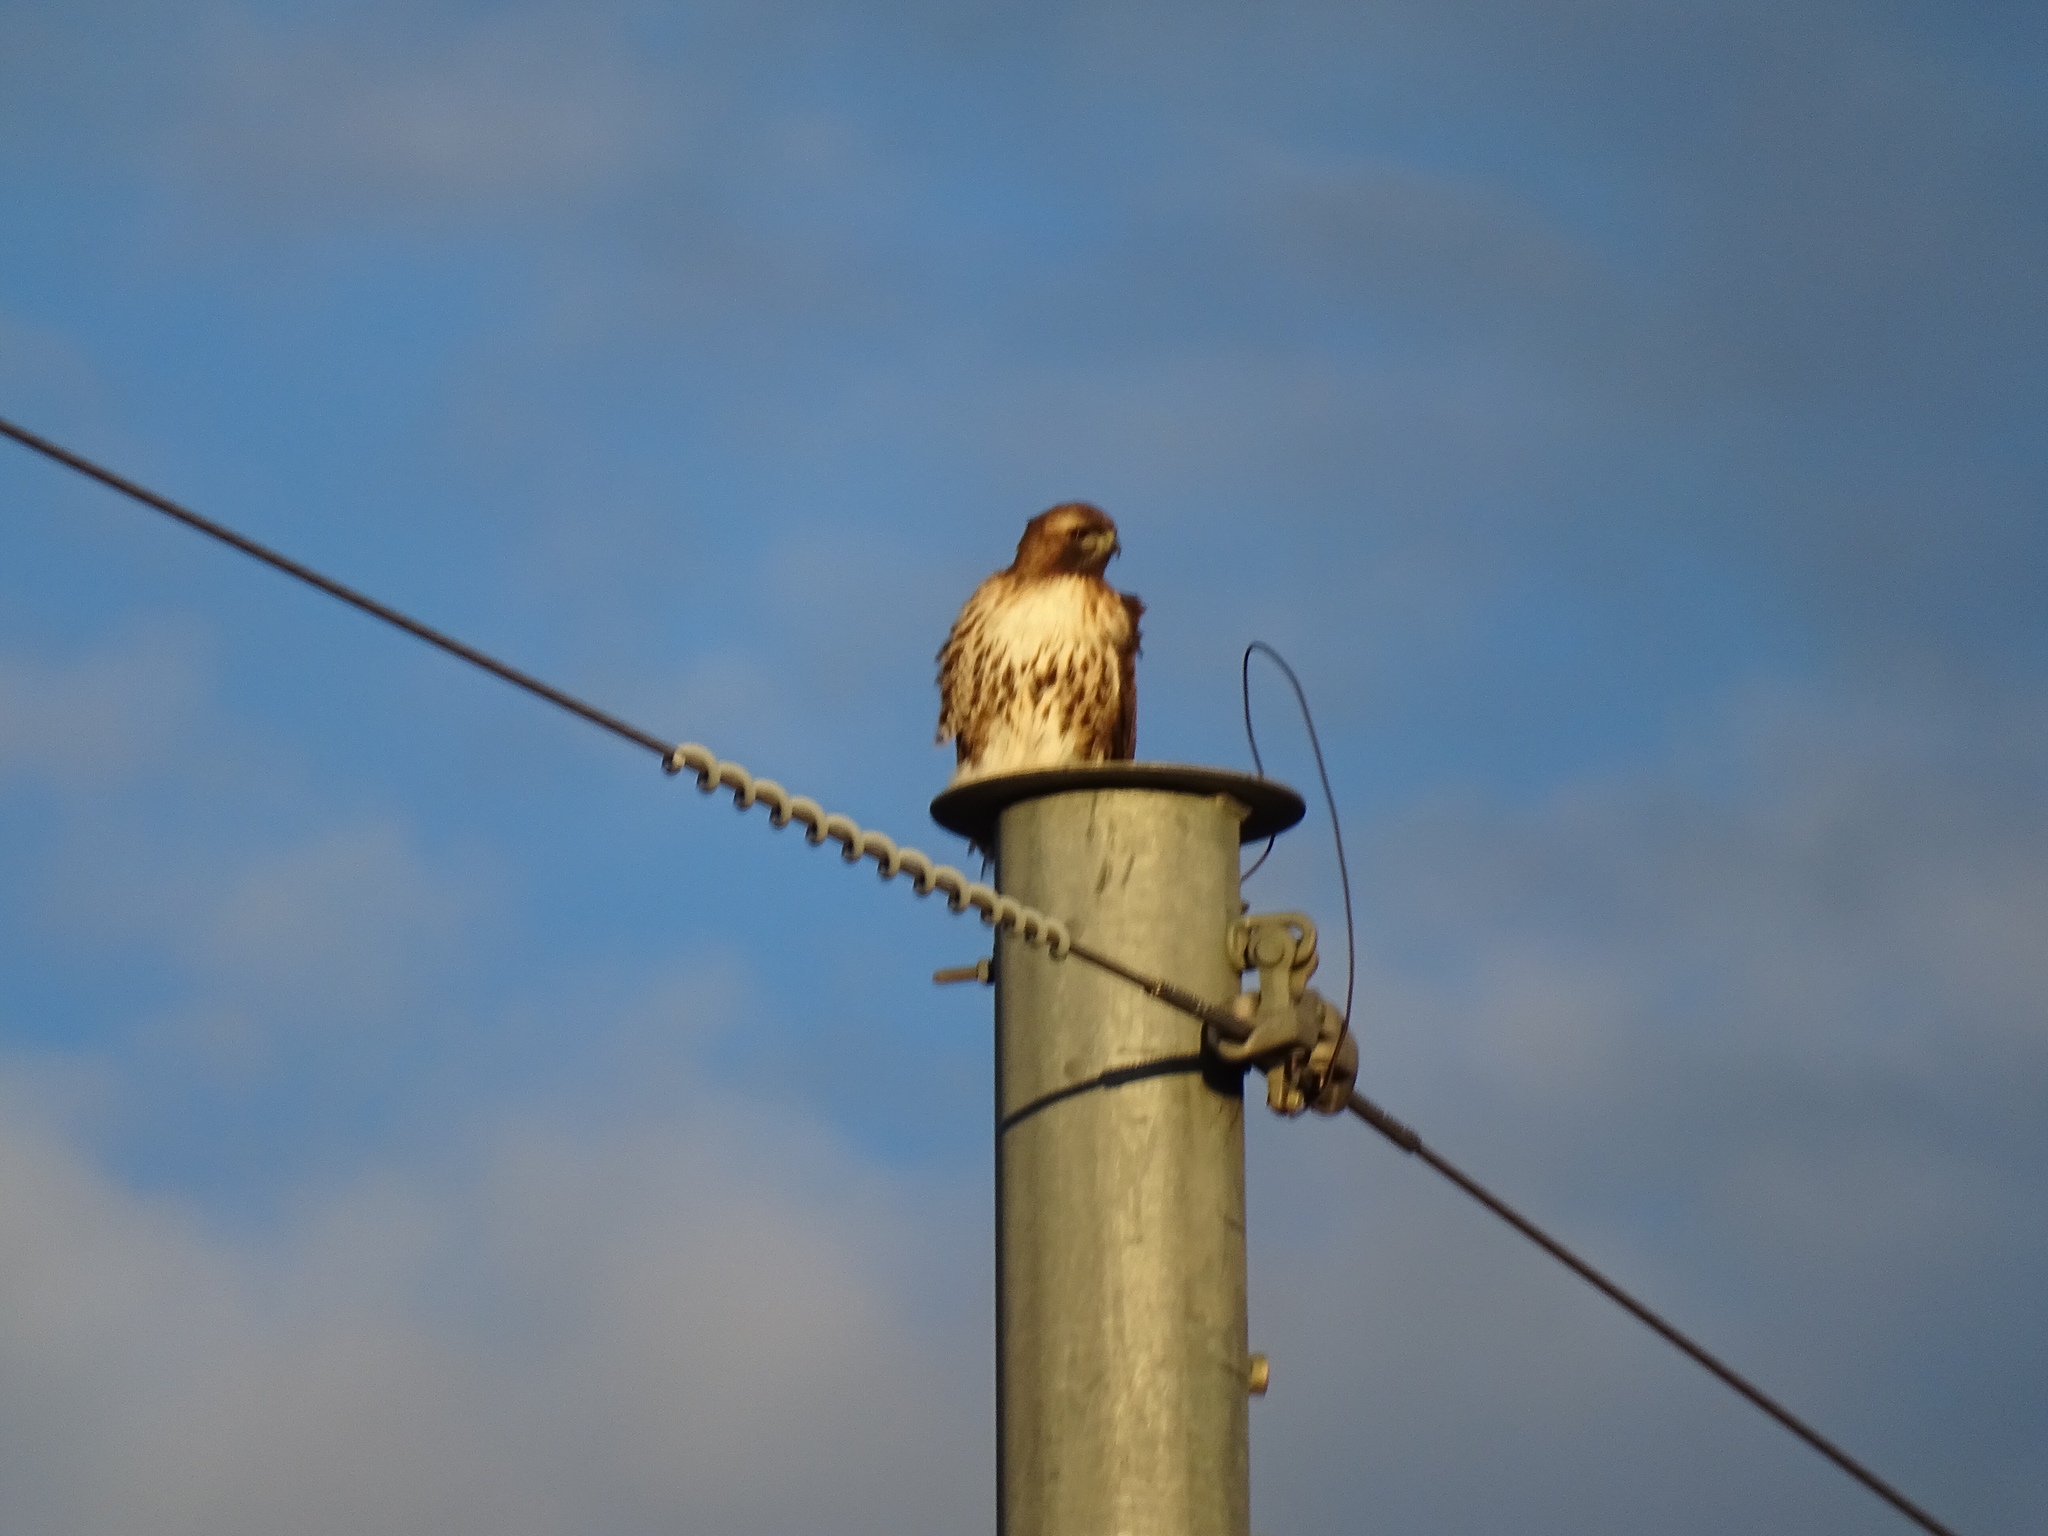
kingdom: Animalia
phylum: Chordata
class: Aves
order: Accipitriformes
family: Accipitridae
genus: Buteo
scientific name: Buteo jamaicensis
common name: Red-tailed hawk
